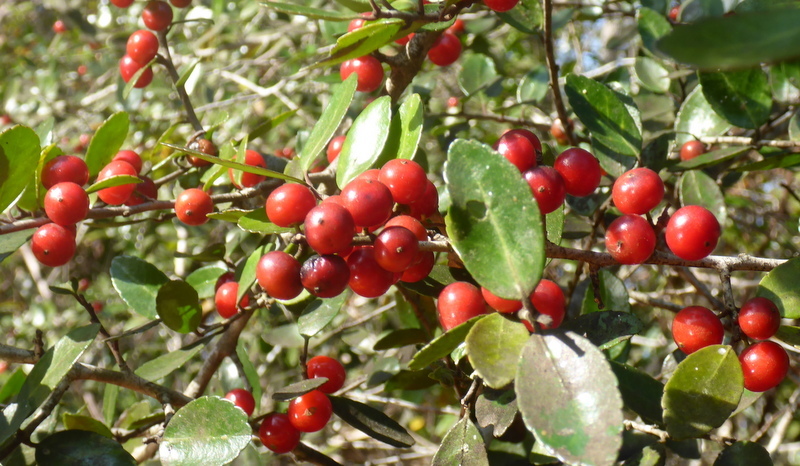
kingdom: Plantae
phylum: Tracheophyta
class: Magnoliopsida
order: Aquifoliales
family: Aquifoliaceae
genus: Ilex
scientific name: Ilex vomitoria
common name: Yaupon holly
